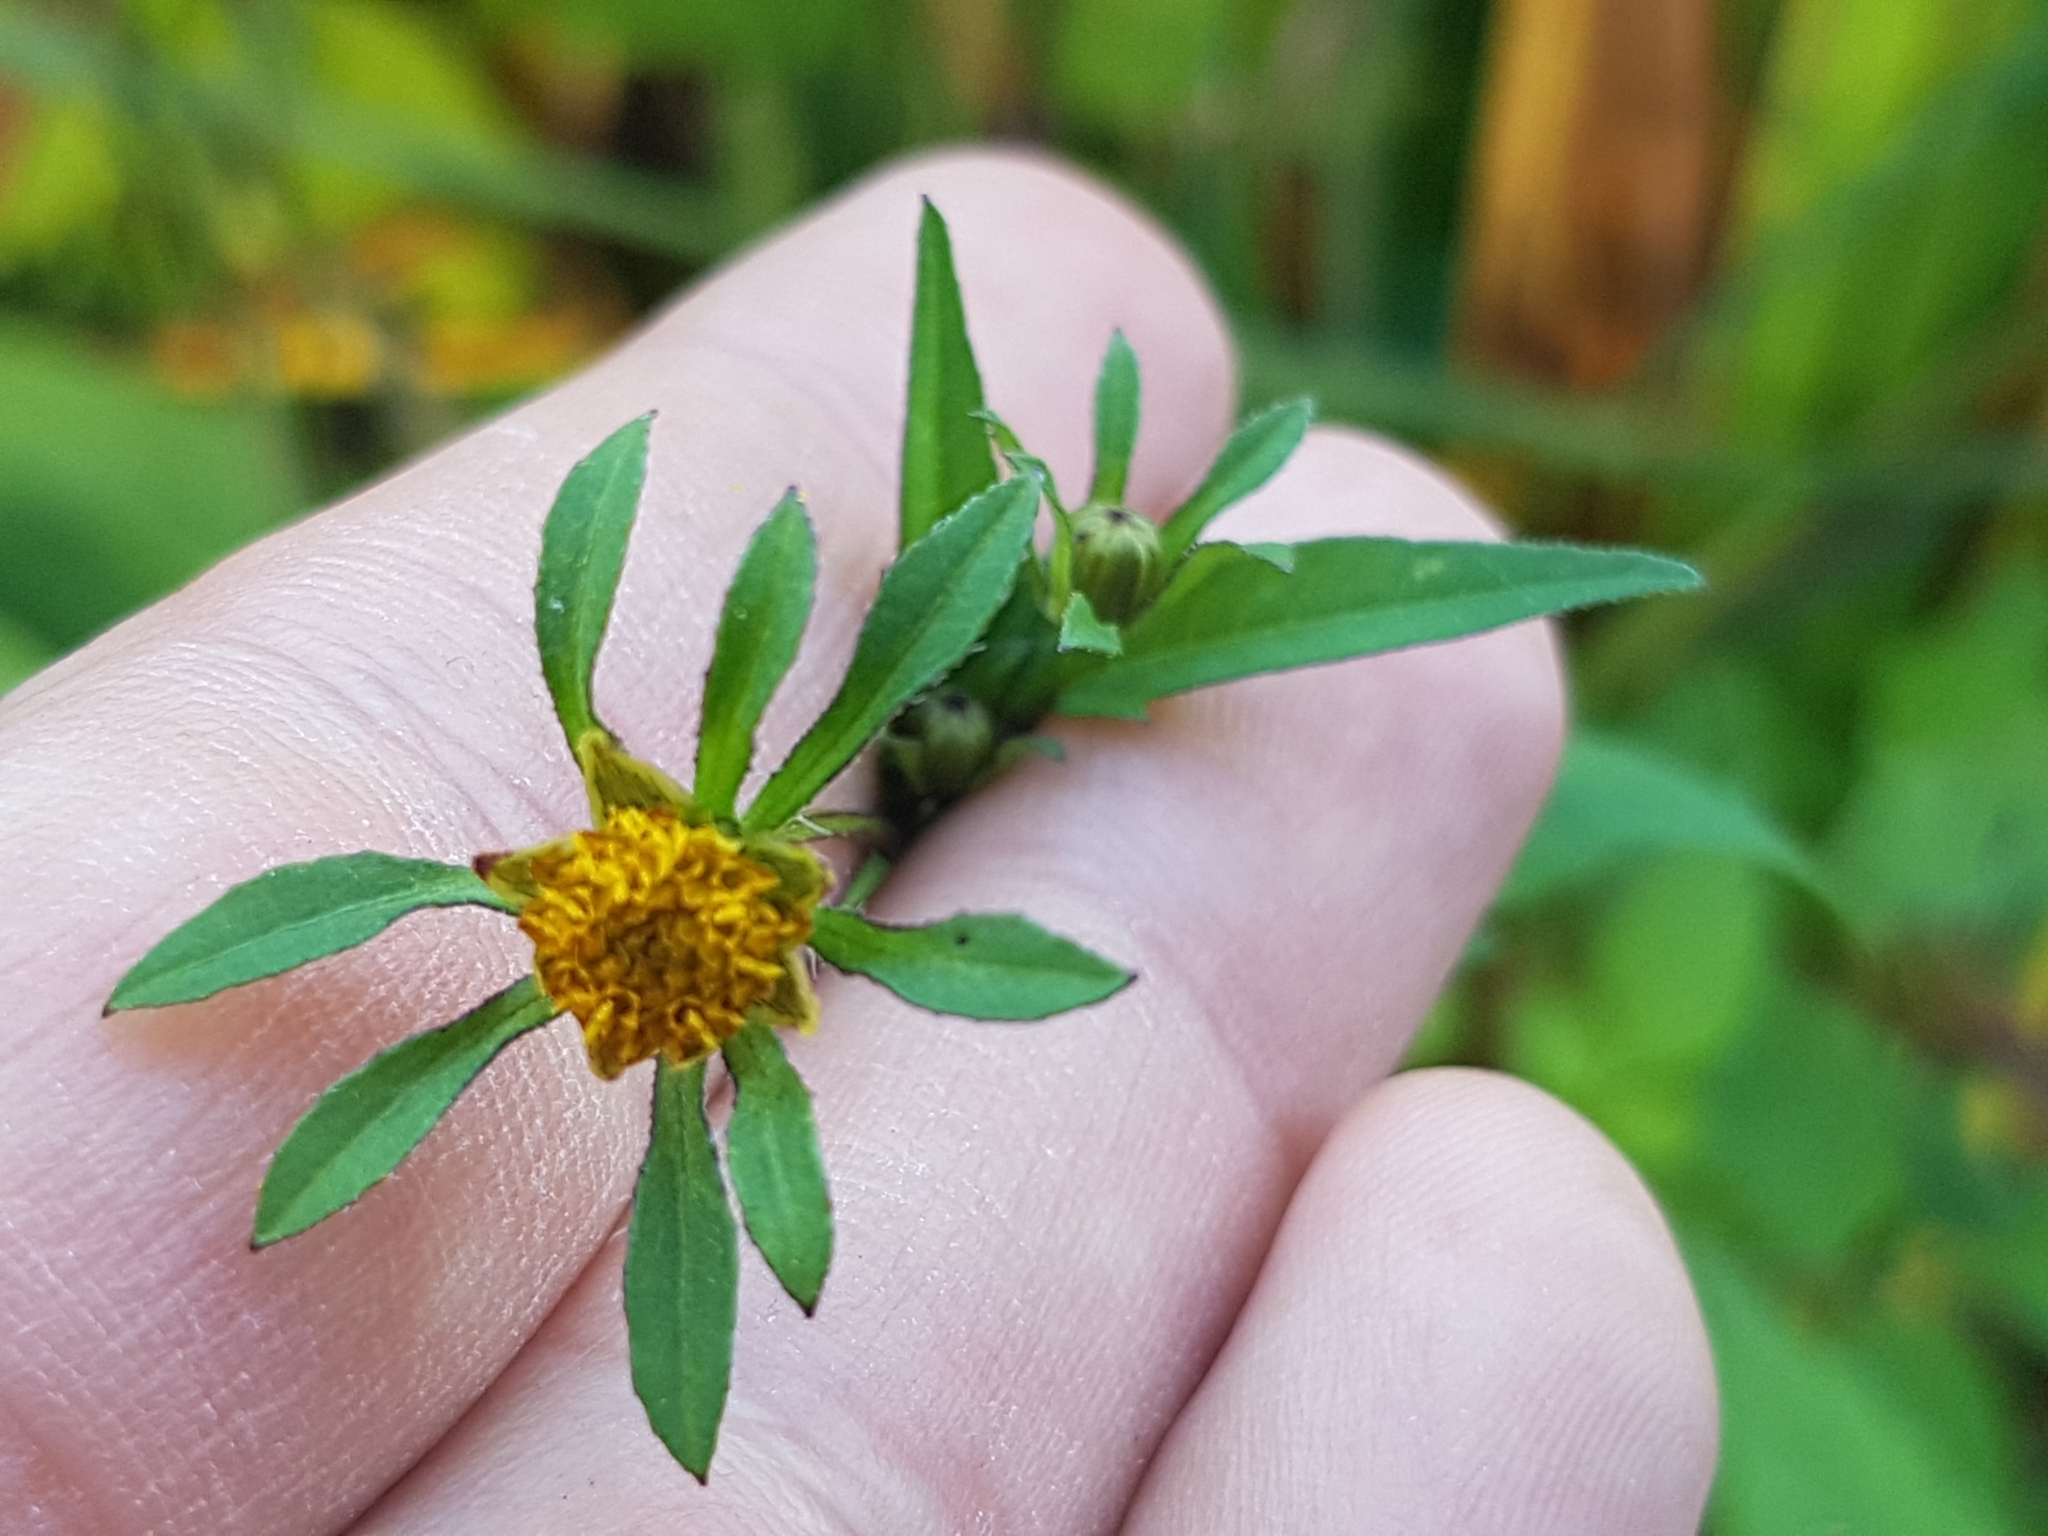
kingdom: Plantae
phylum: Tracheophyta
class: Magnoliopsida
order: Asterales
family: Asteraceae
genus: Bidens
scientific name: Bidens frondosa
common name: Beggarticks
